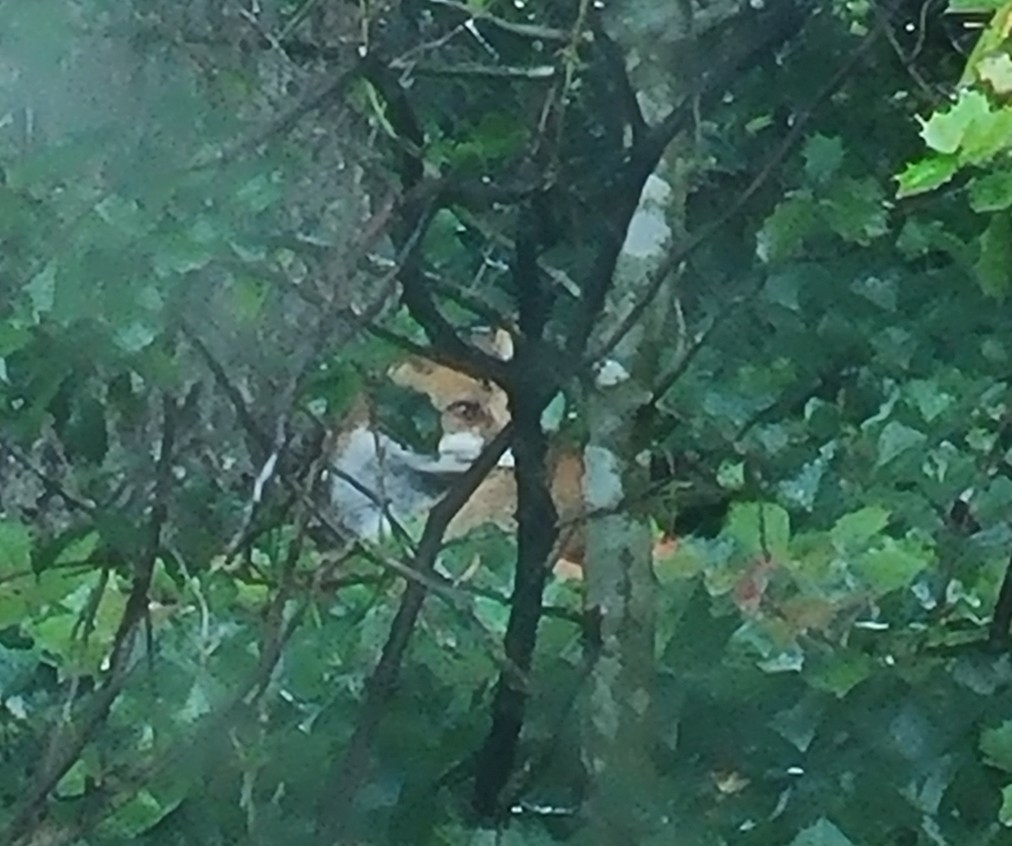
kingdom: Animalia
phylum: Chordata
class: Mammalia
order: Carnivora
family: Canidae
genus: Vulpes
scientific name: Vulpes vulpes
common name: Red fox
